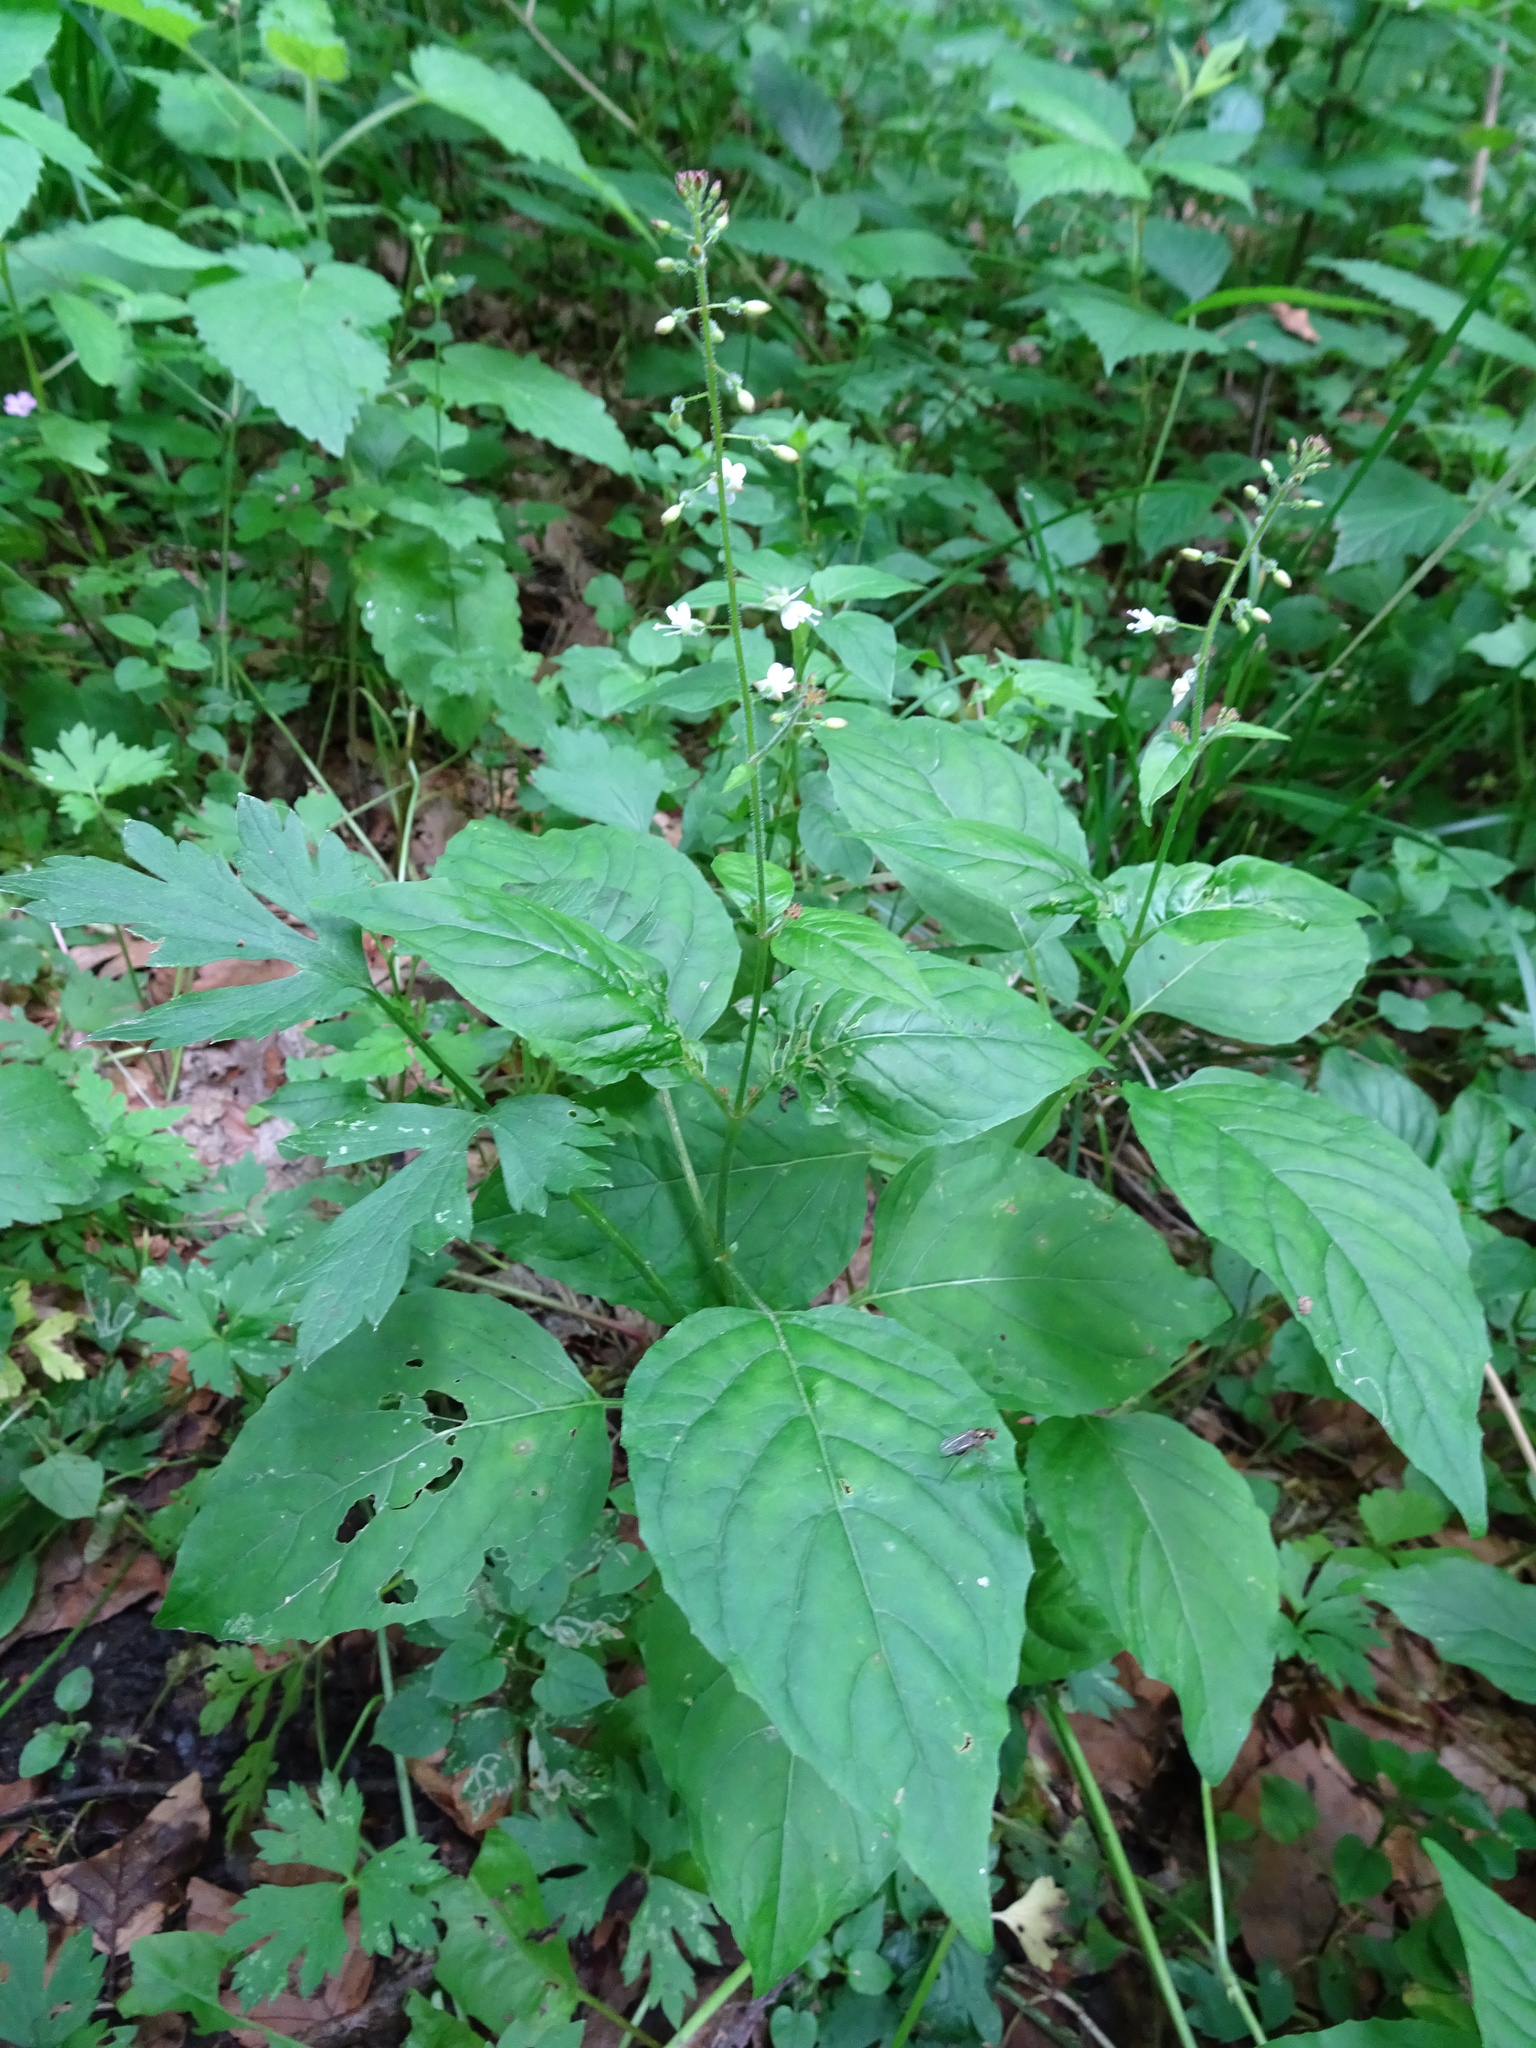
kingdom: Plantae
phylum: Tracheophyta
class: Magnoliopsida
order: Myrtales
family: Onagraceae
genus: Circaea
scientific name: Circaea lutetiana
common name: Enchanter's-nightshade
